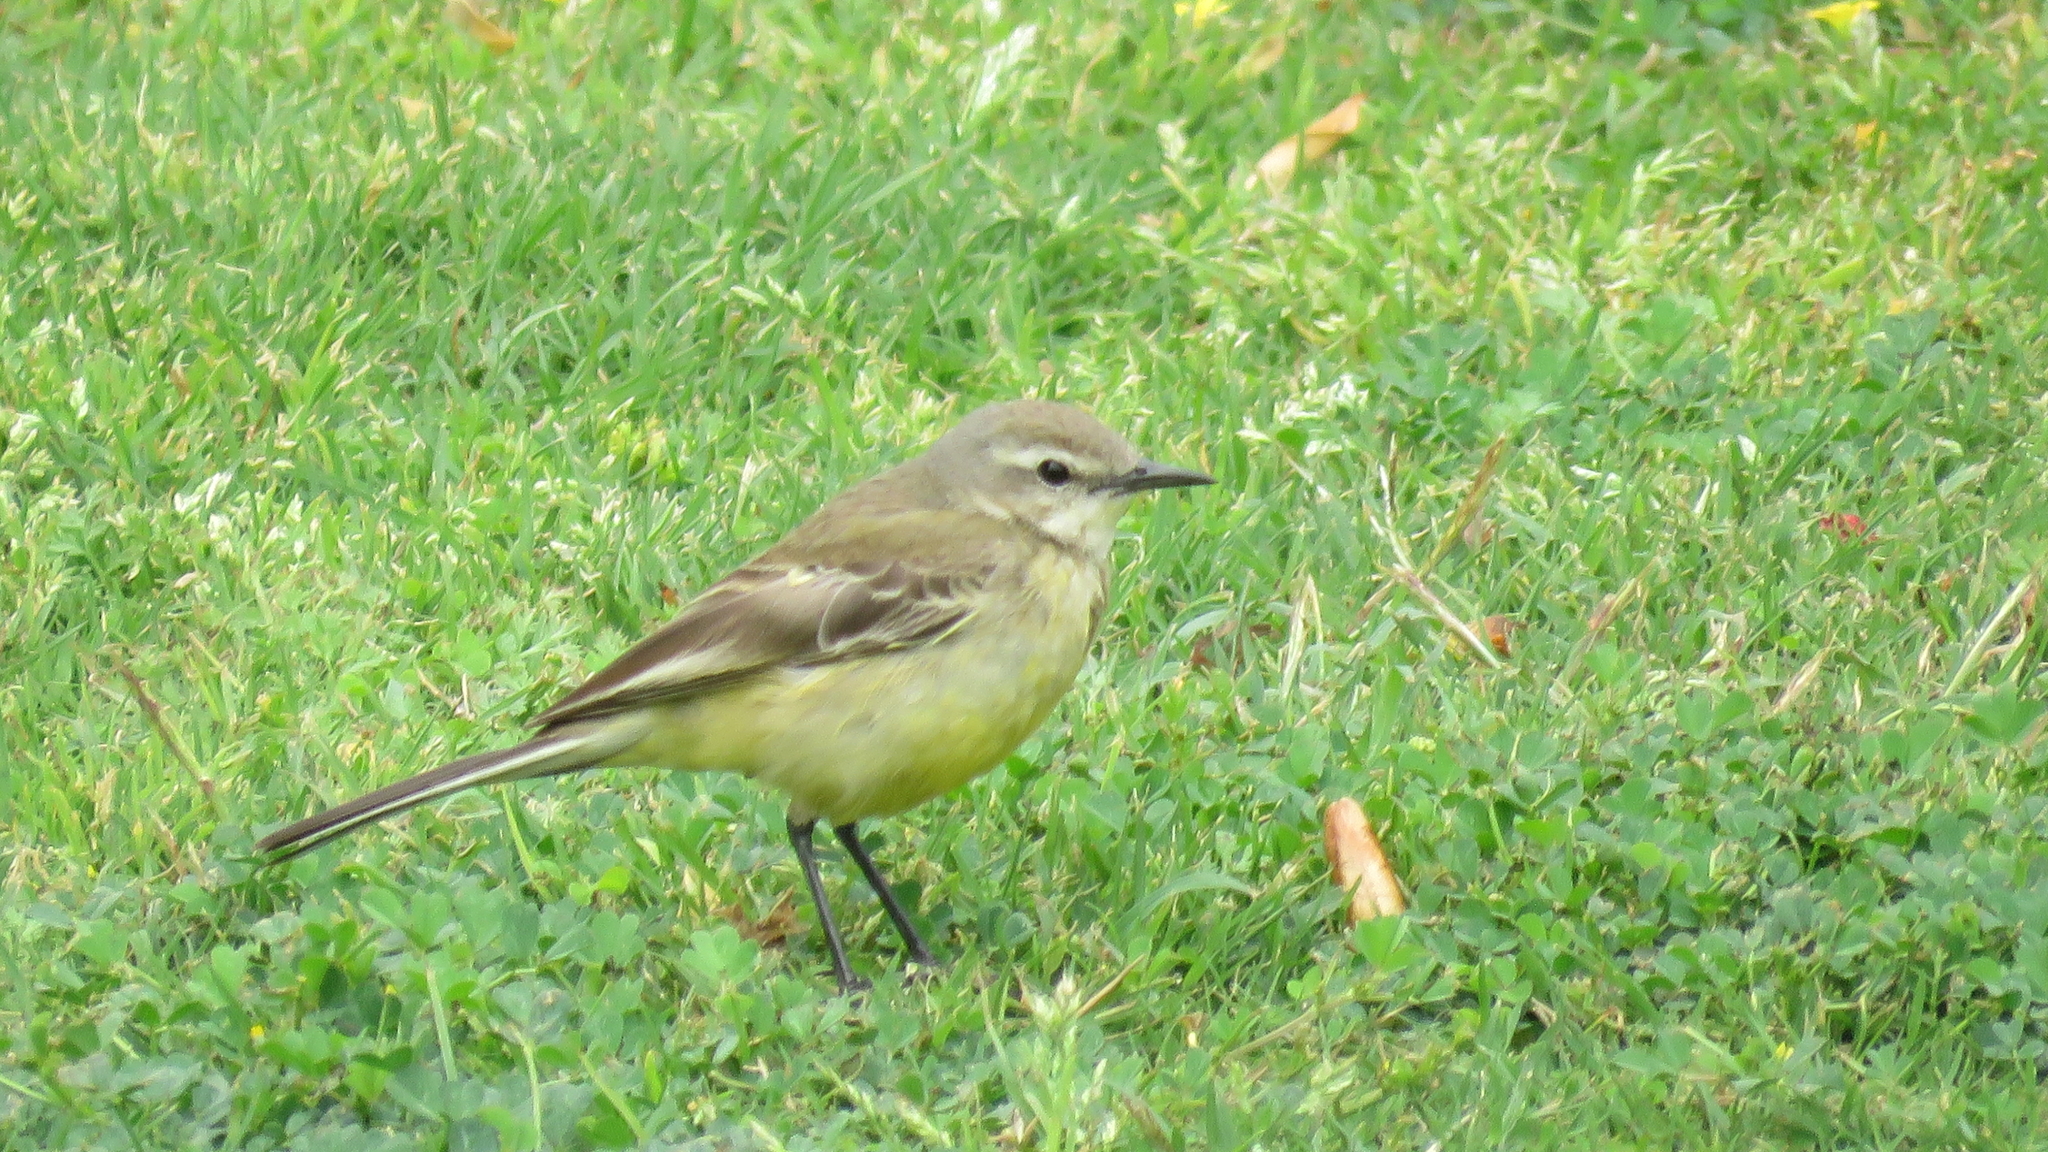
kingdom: Animalia
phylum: Chordata
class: Aves
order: Passeriformes
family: Motacillidae
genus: Motacilla
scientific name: Motacilla flava
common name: Western yellow wagtail
